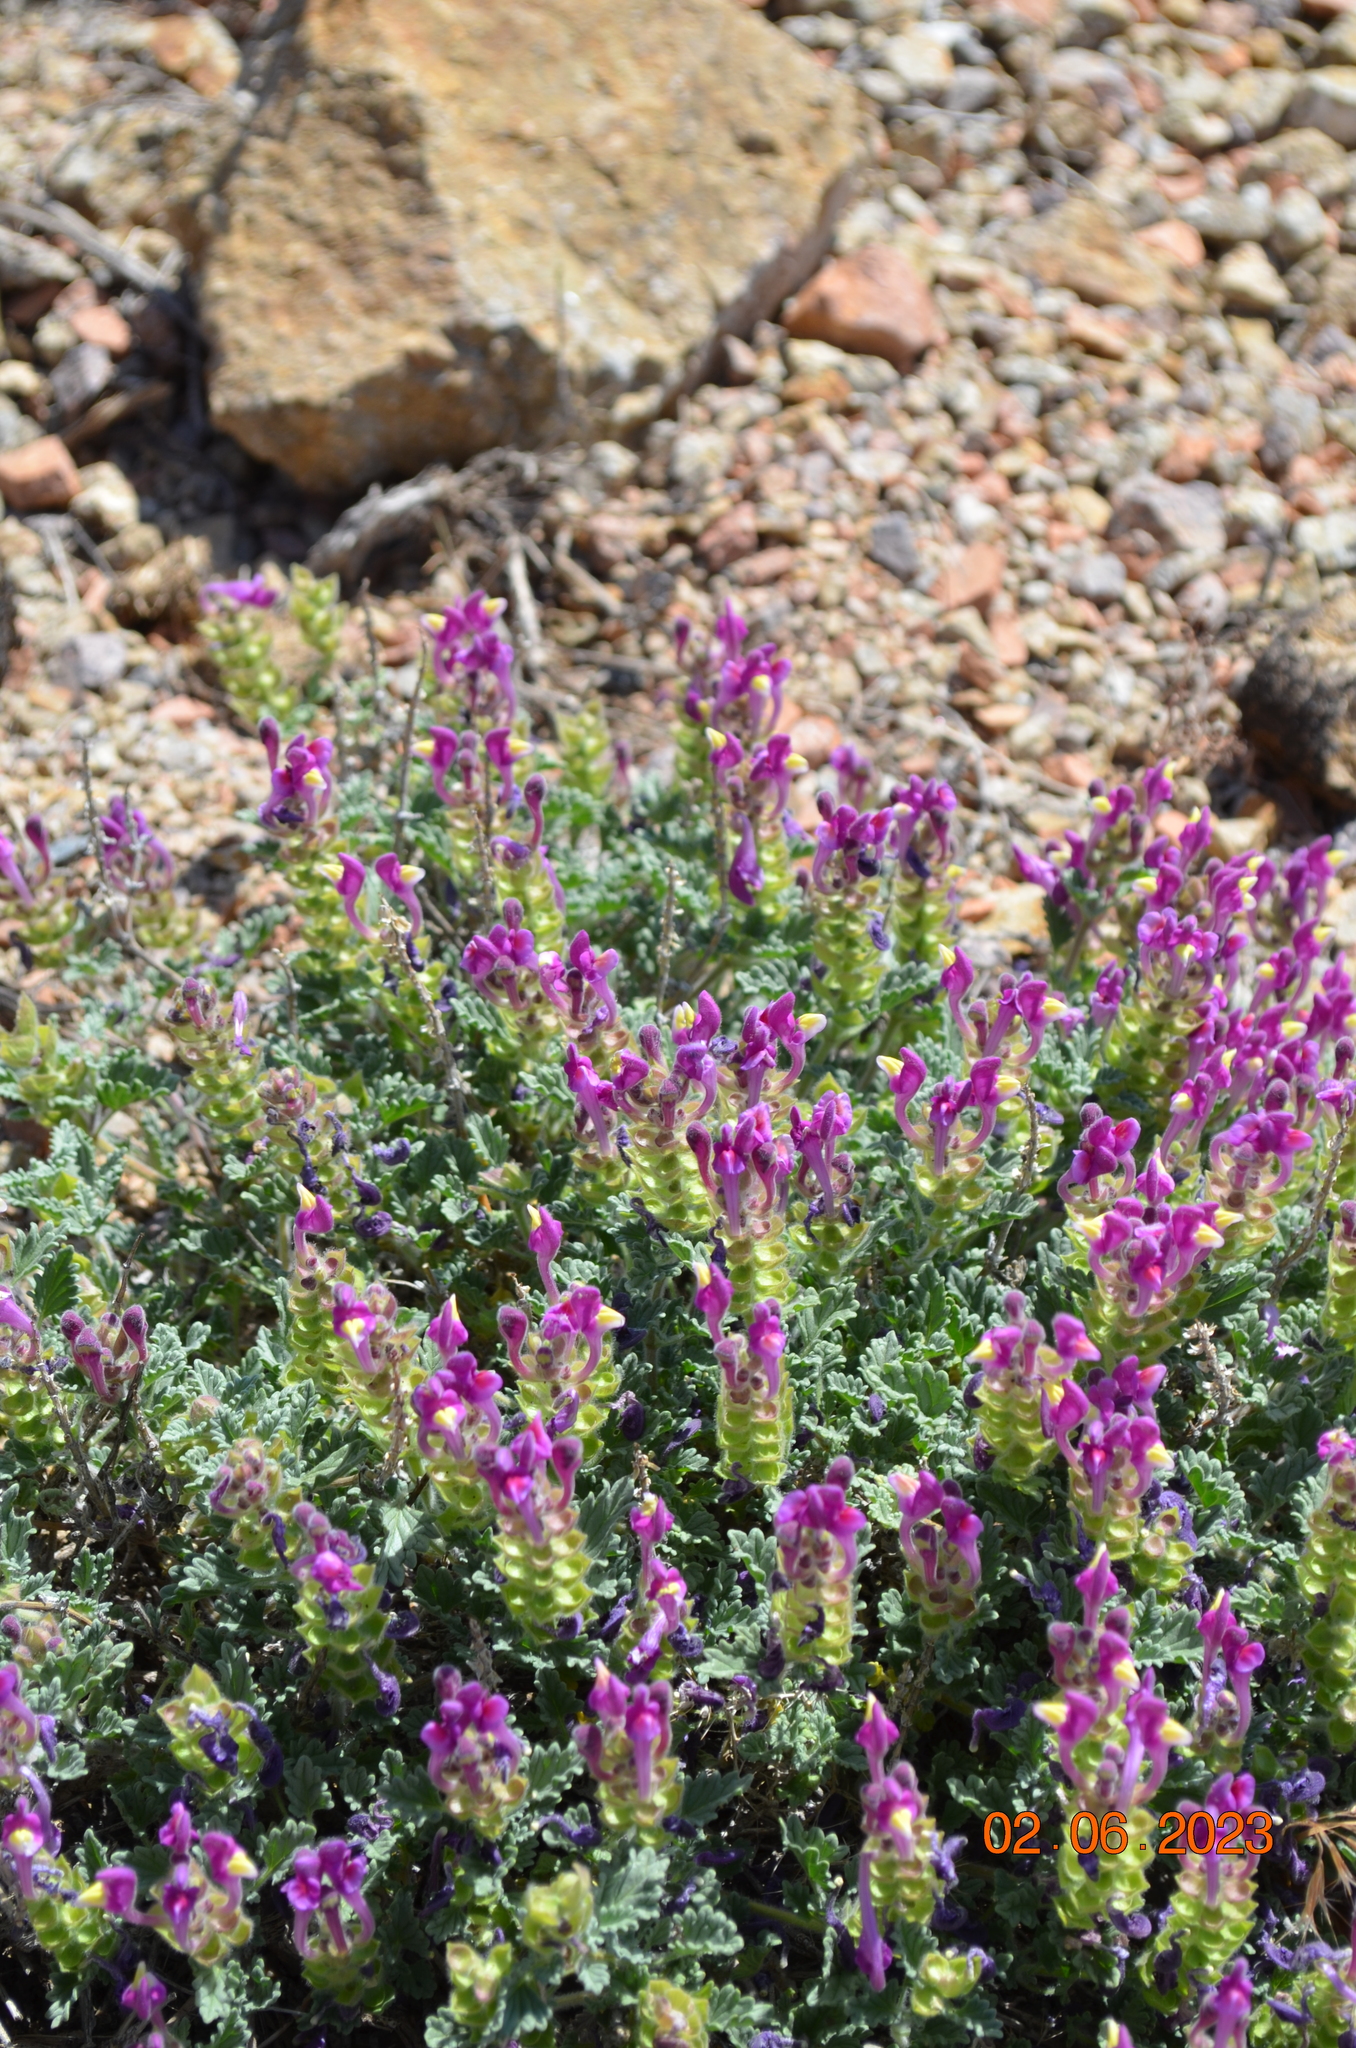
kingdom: Plantae
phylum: Tracheophyta
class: Magnoliopsida
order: Lamiales
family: Lamiaceae
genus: Scutellaria
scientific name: Scutellaria turgaica
